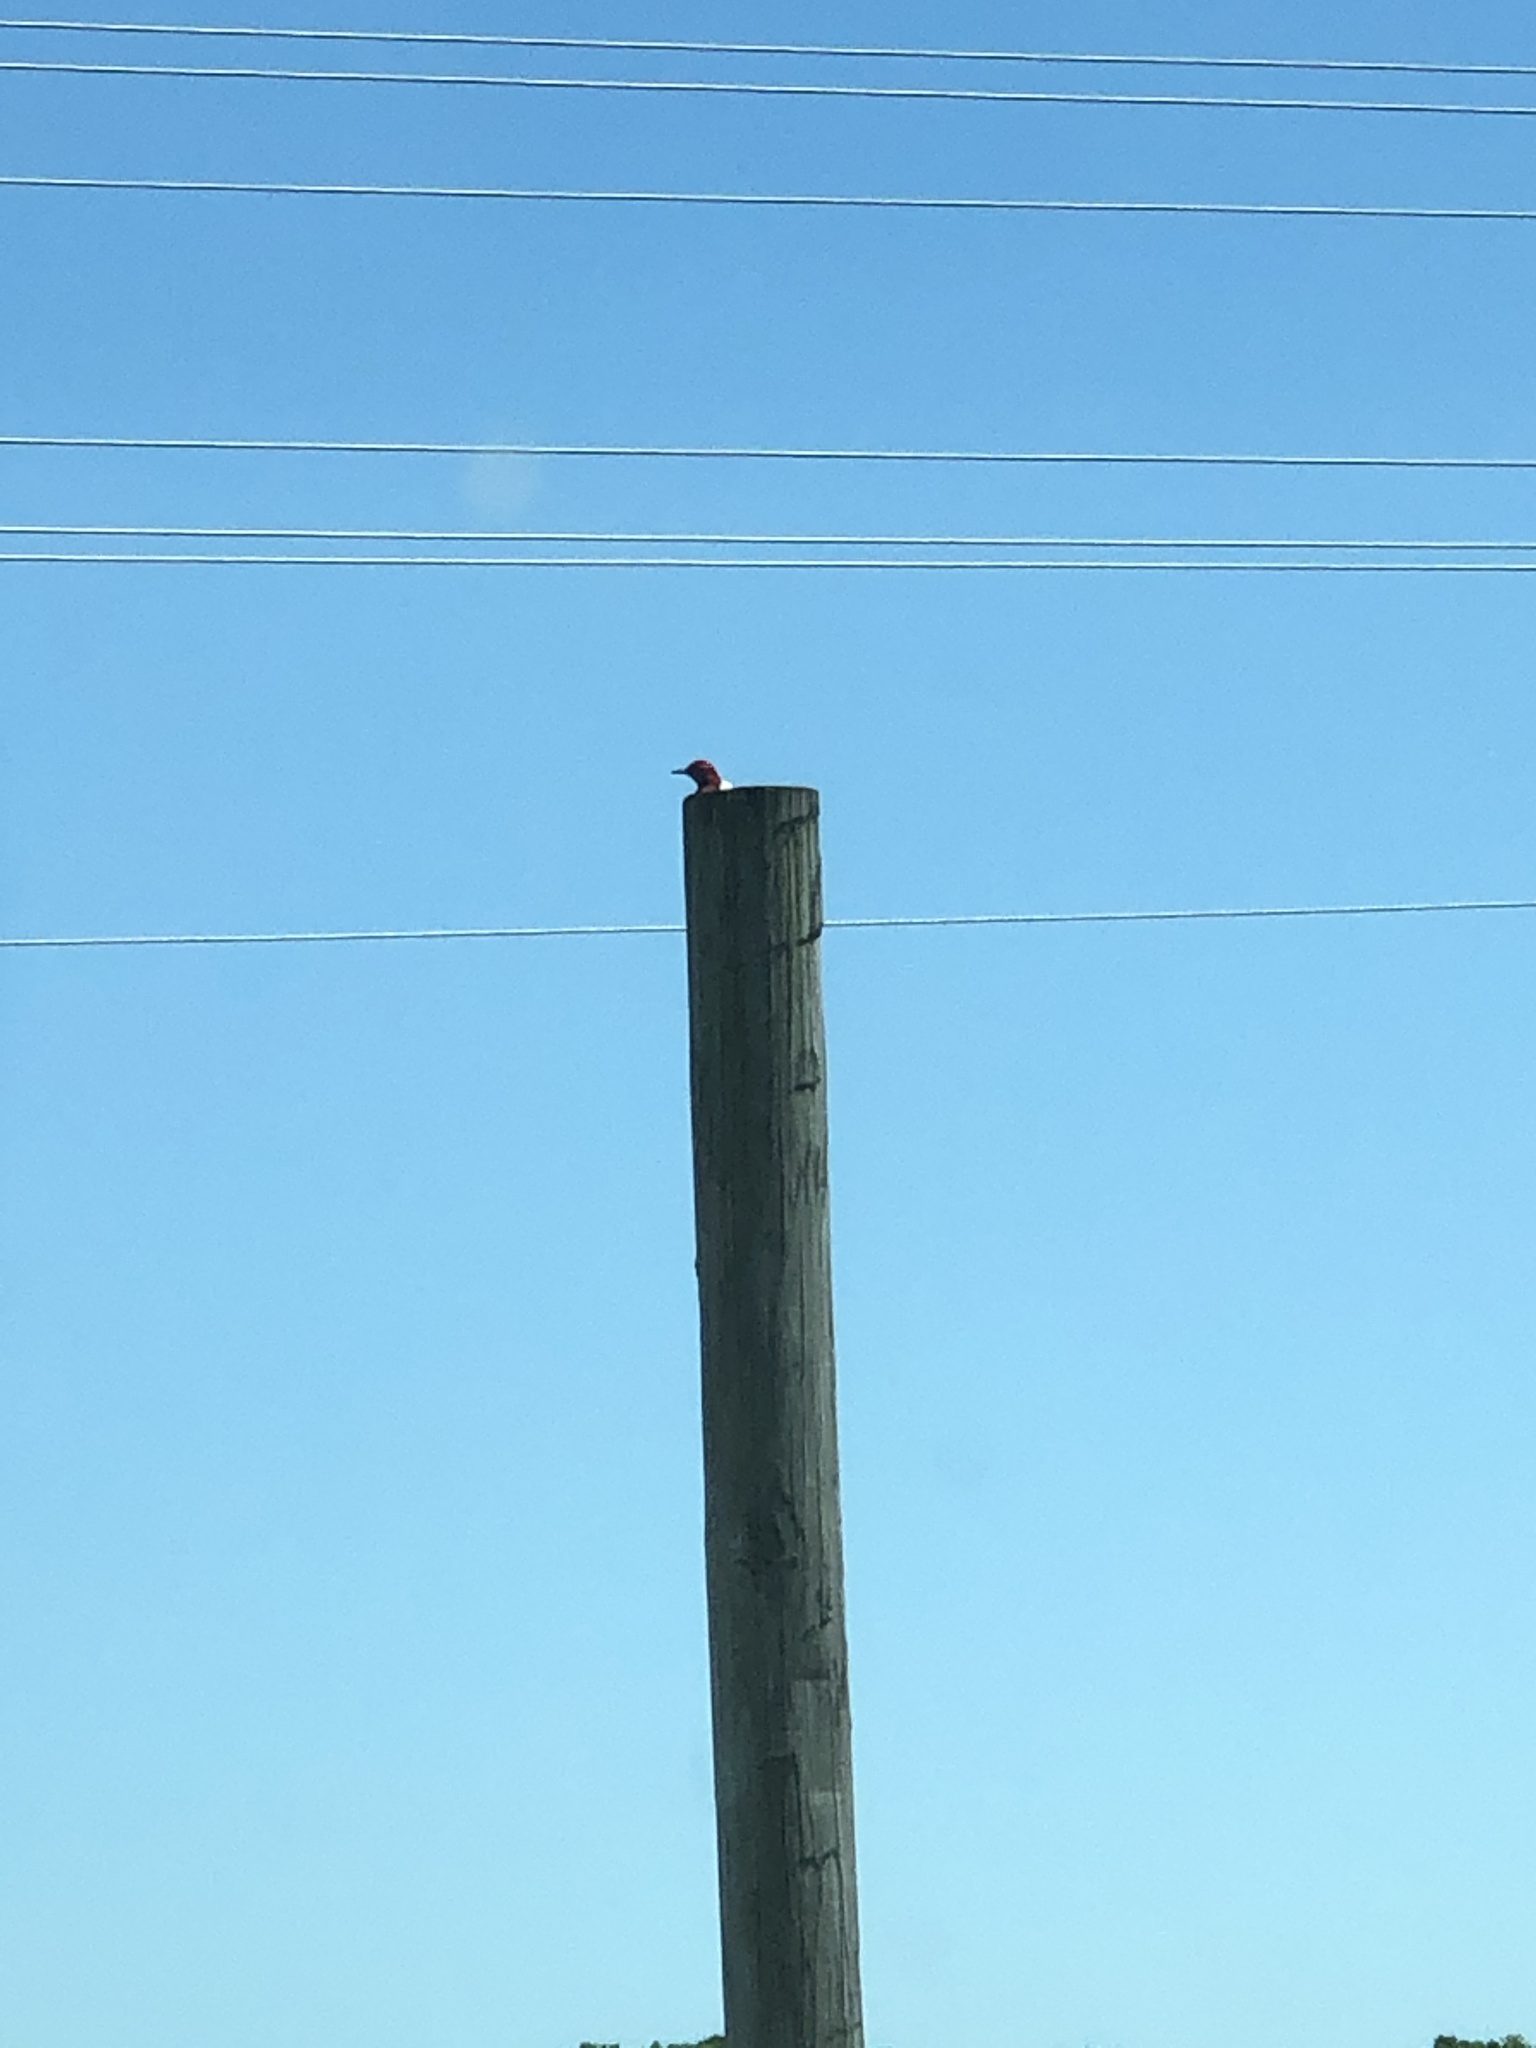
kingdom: Animalia
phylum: Chordata
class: Aves
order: Piciformes
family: Picidae
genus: Melanerpes
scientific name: Melanerpes erythrocephalus
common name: Red-headed woodpecker
